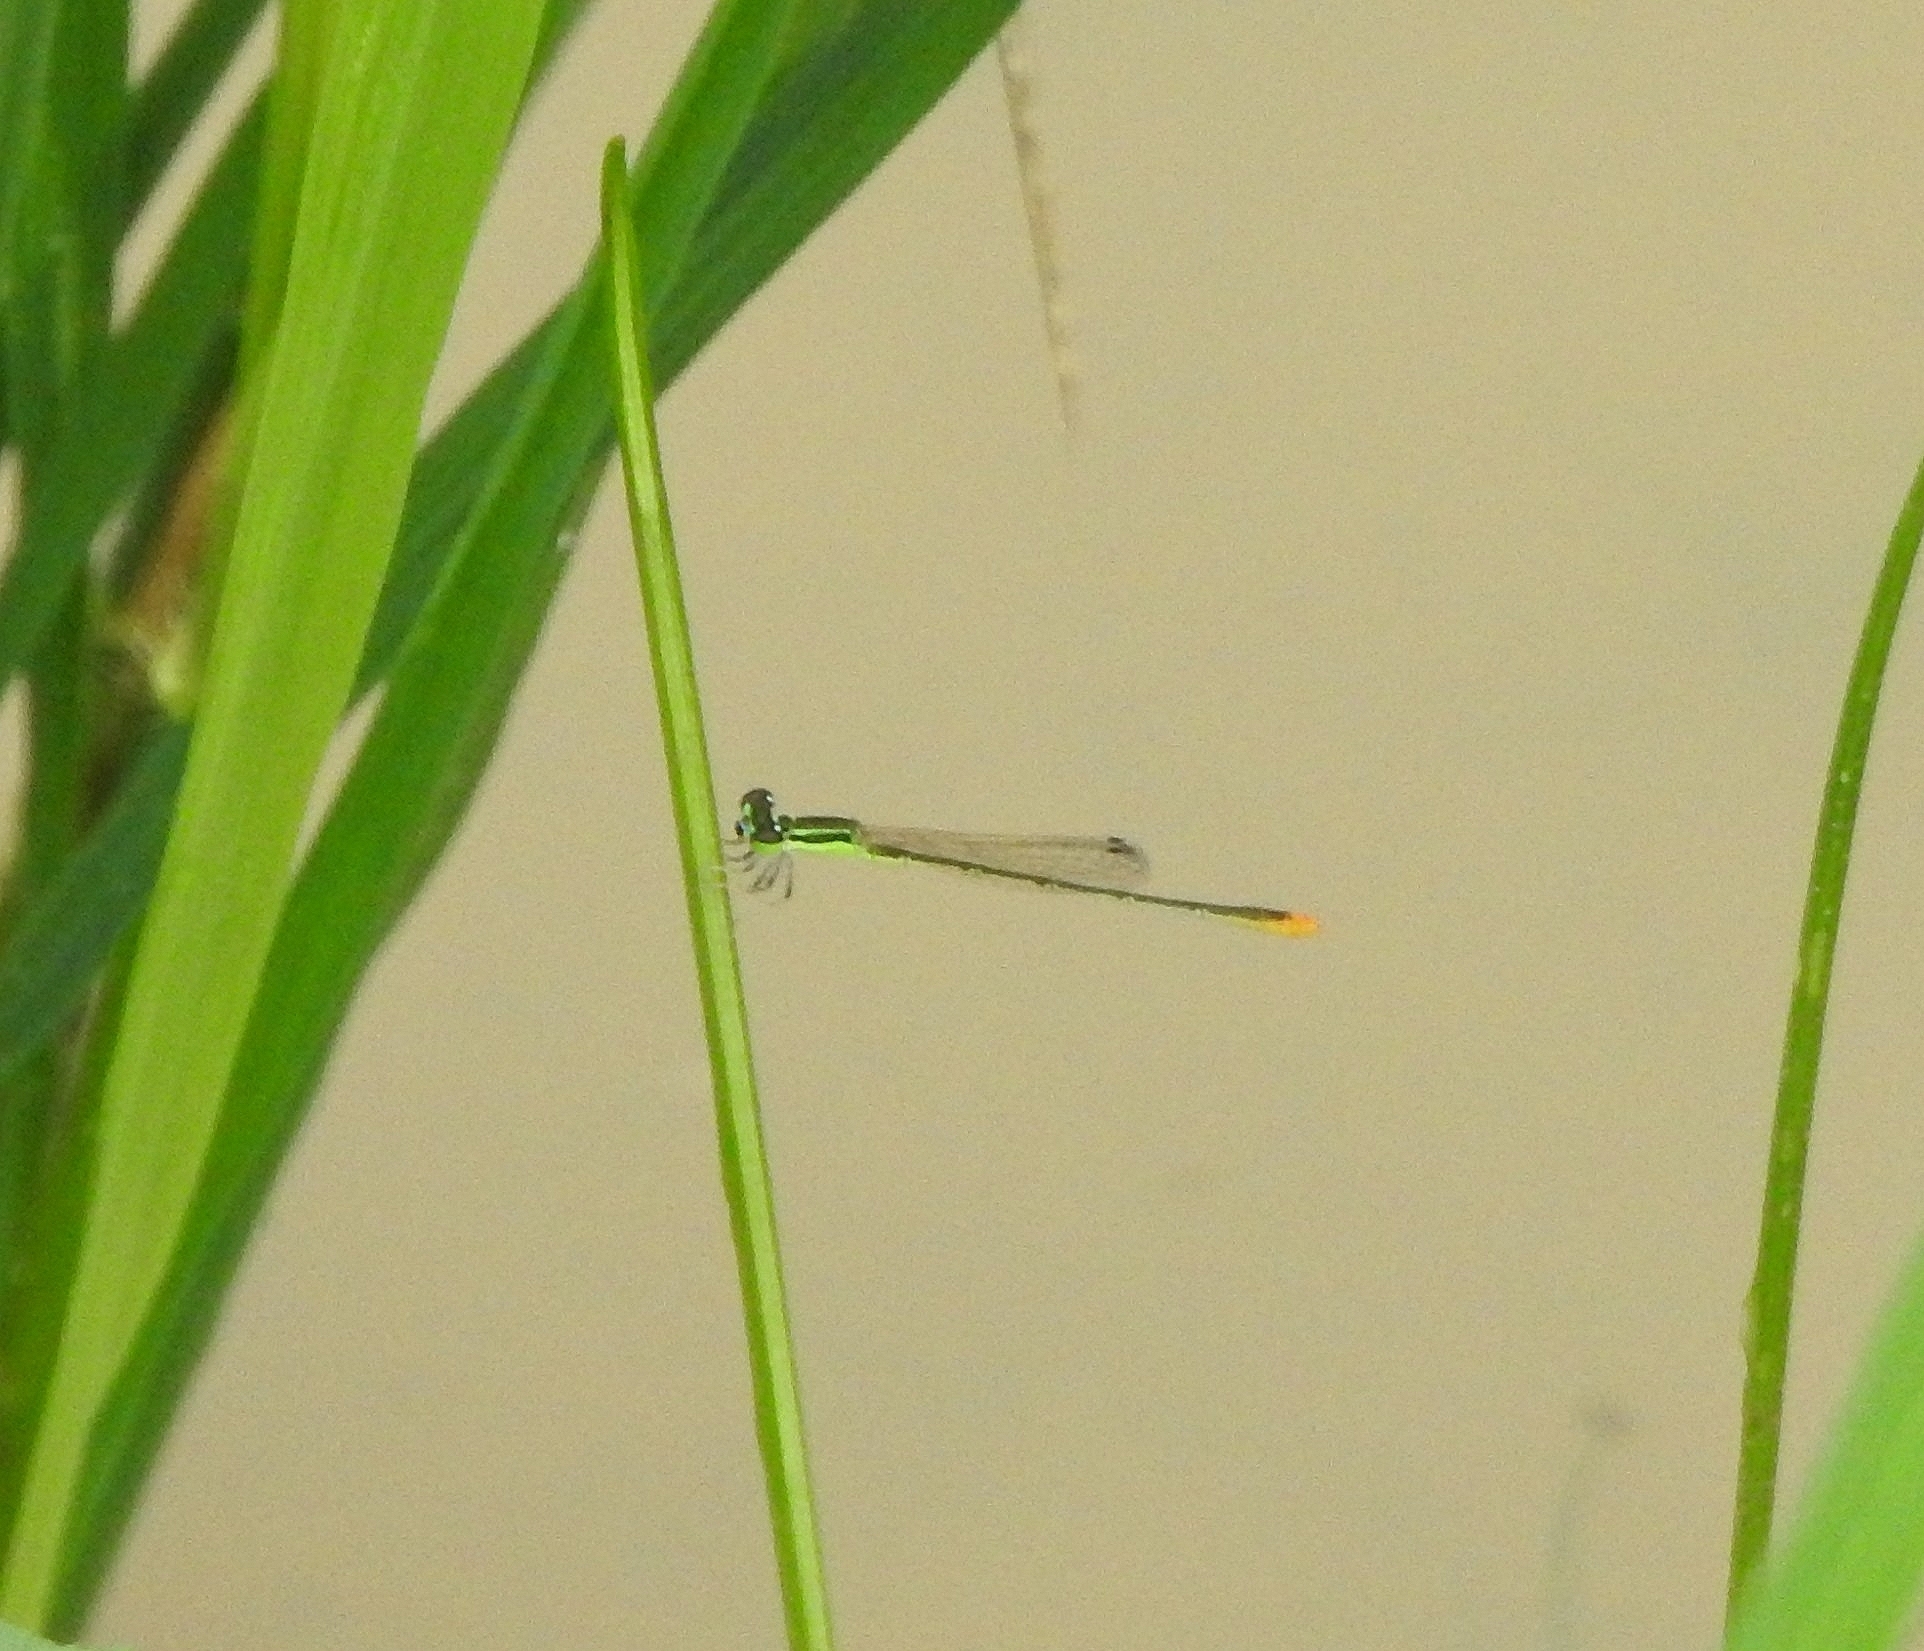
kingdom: Animalia
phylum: Arthropoda
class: Insecta
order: Odonata
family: Coenagrionidae
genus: Agriocnemis
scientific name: Agriocnemis pygmaea
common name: Pygmy wisp
